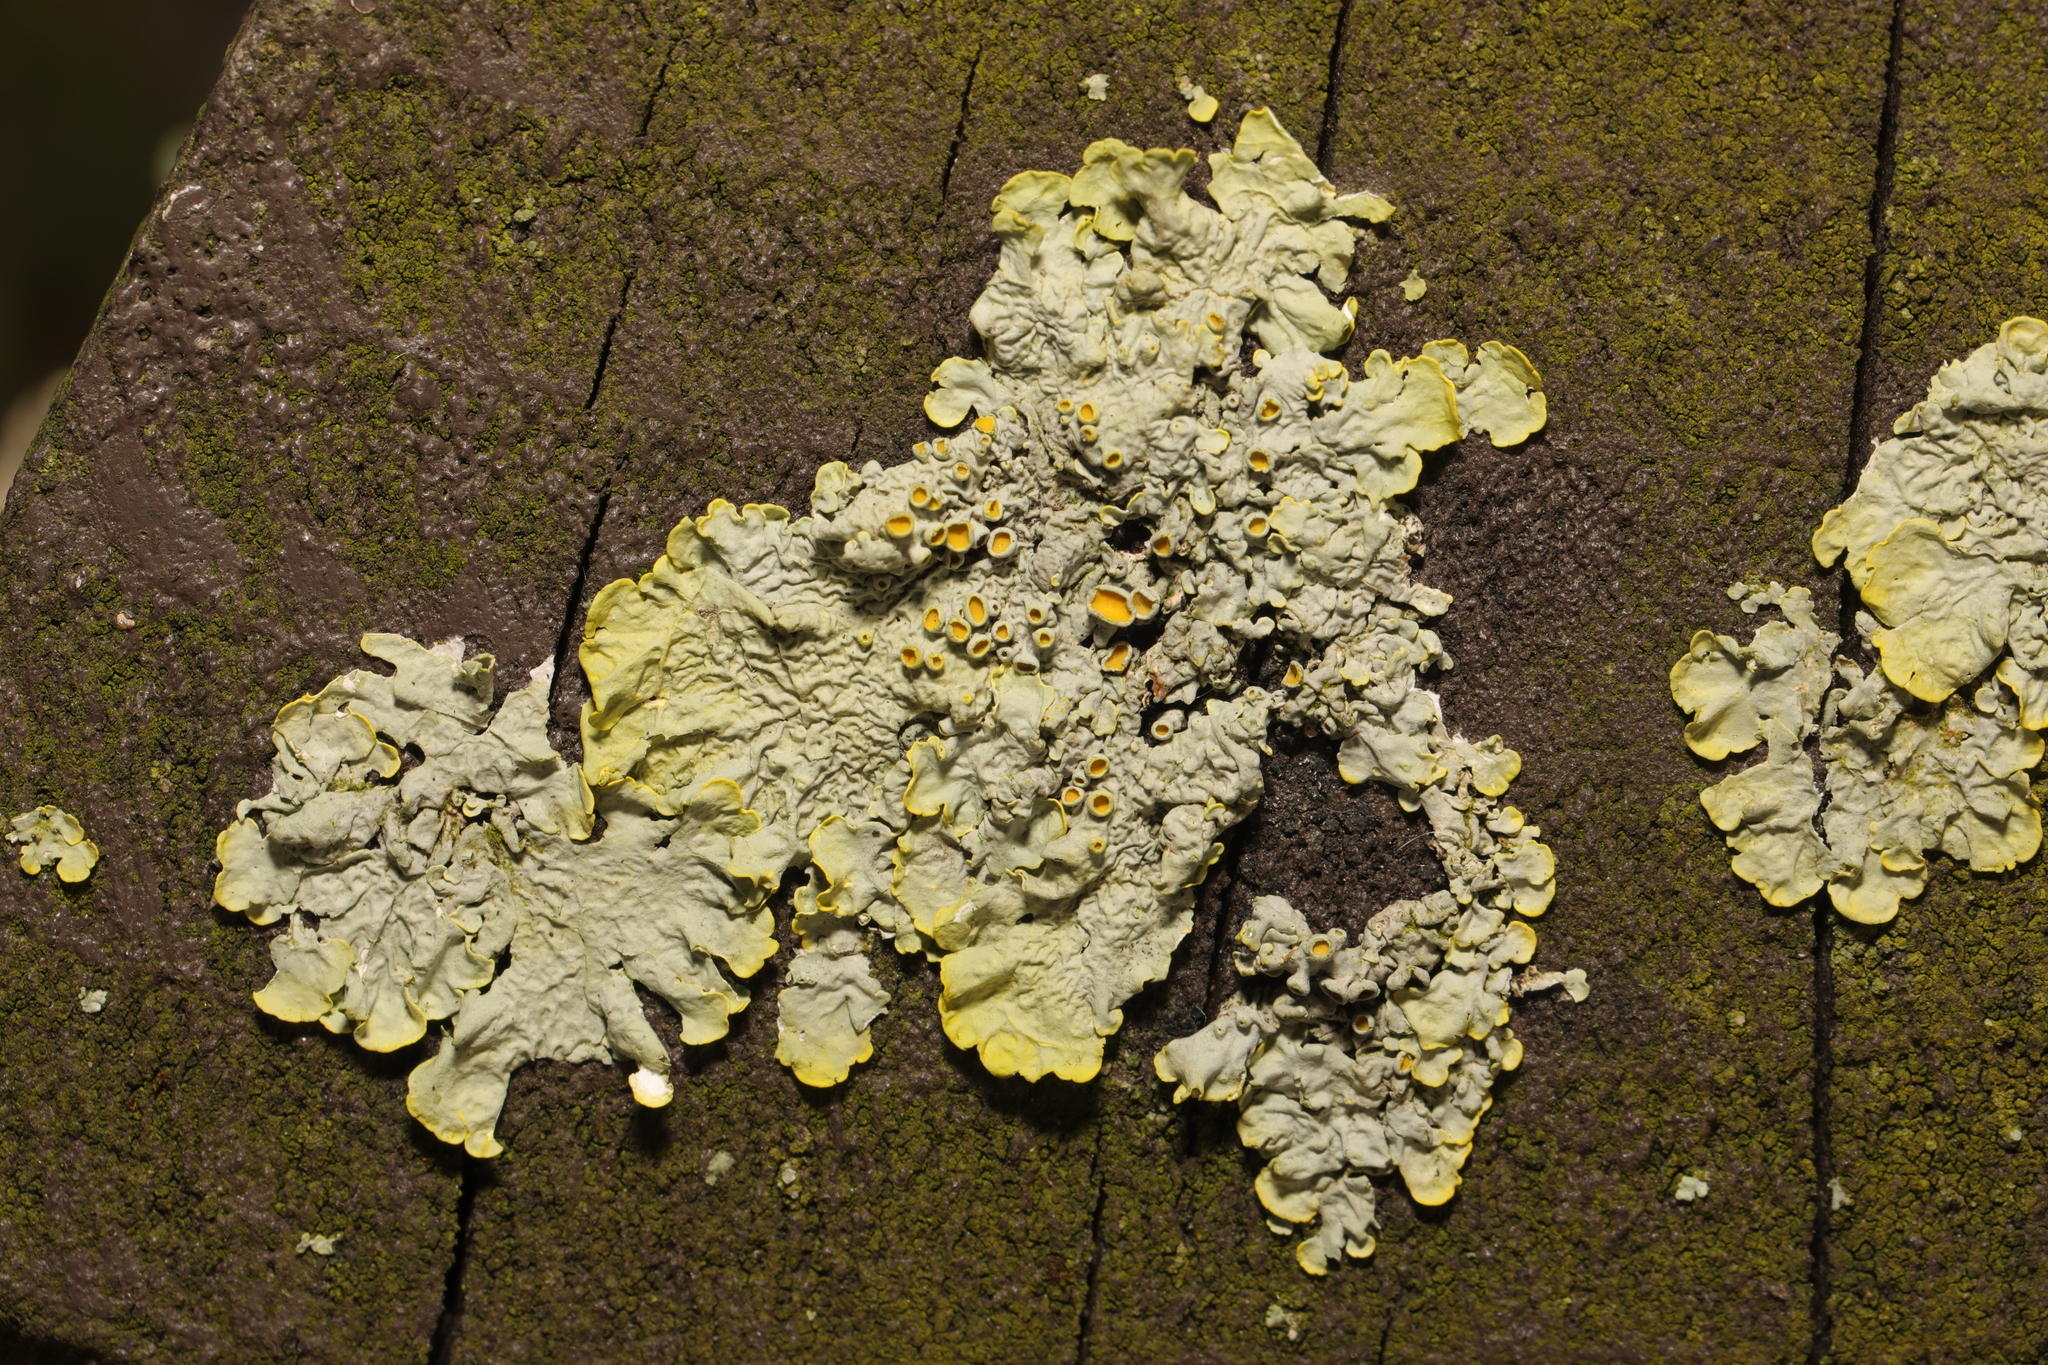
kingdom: Fungi
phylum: Ascomycota
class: Lecanoromycetes
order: Teloschistales
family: Teloschistaceae
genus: Xanthoria
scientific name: Xanthoria parietina
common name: Common orange lichen
